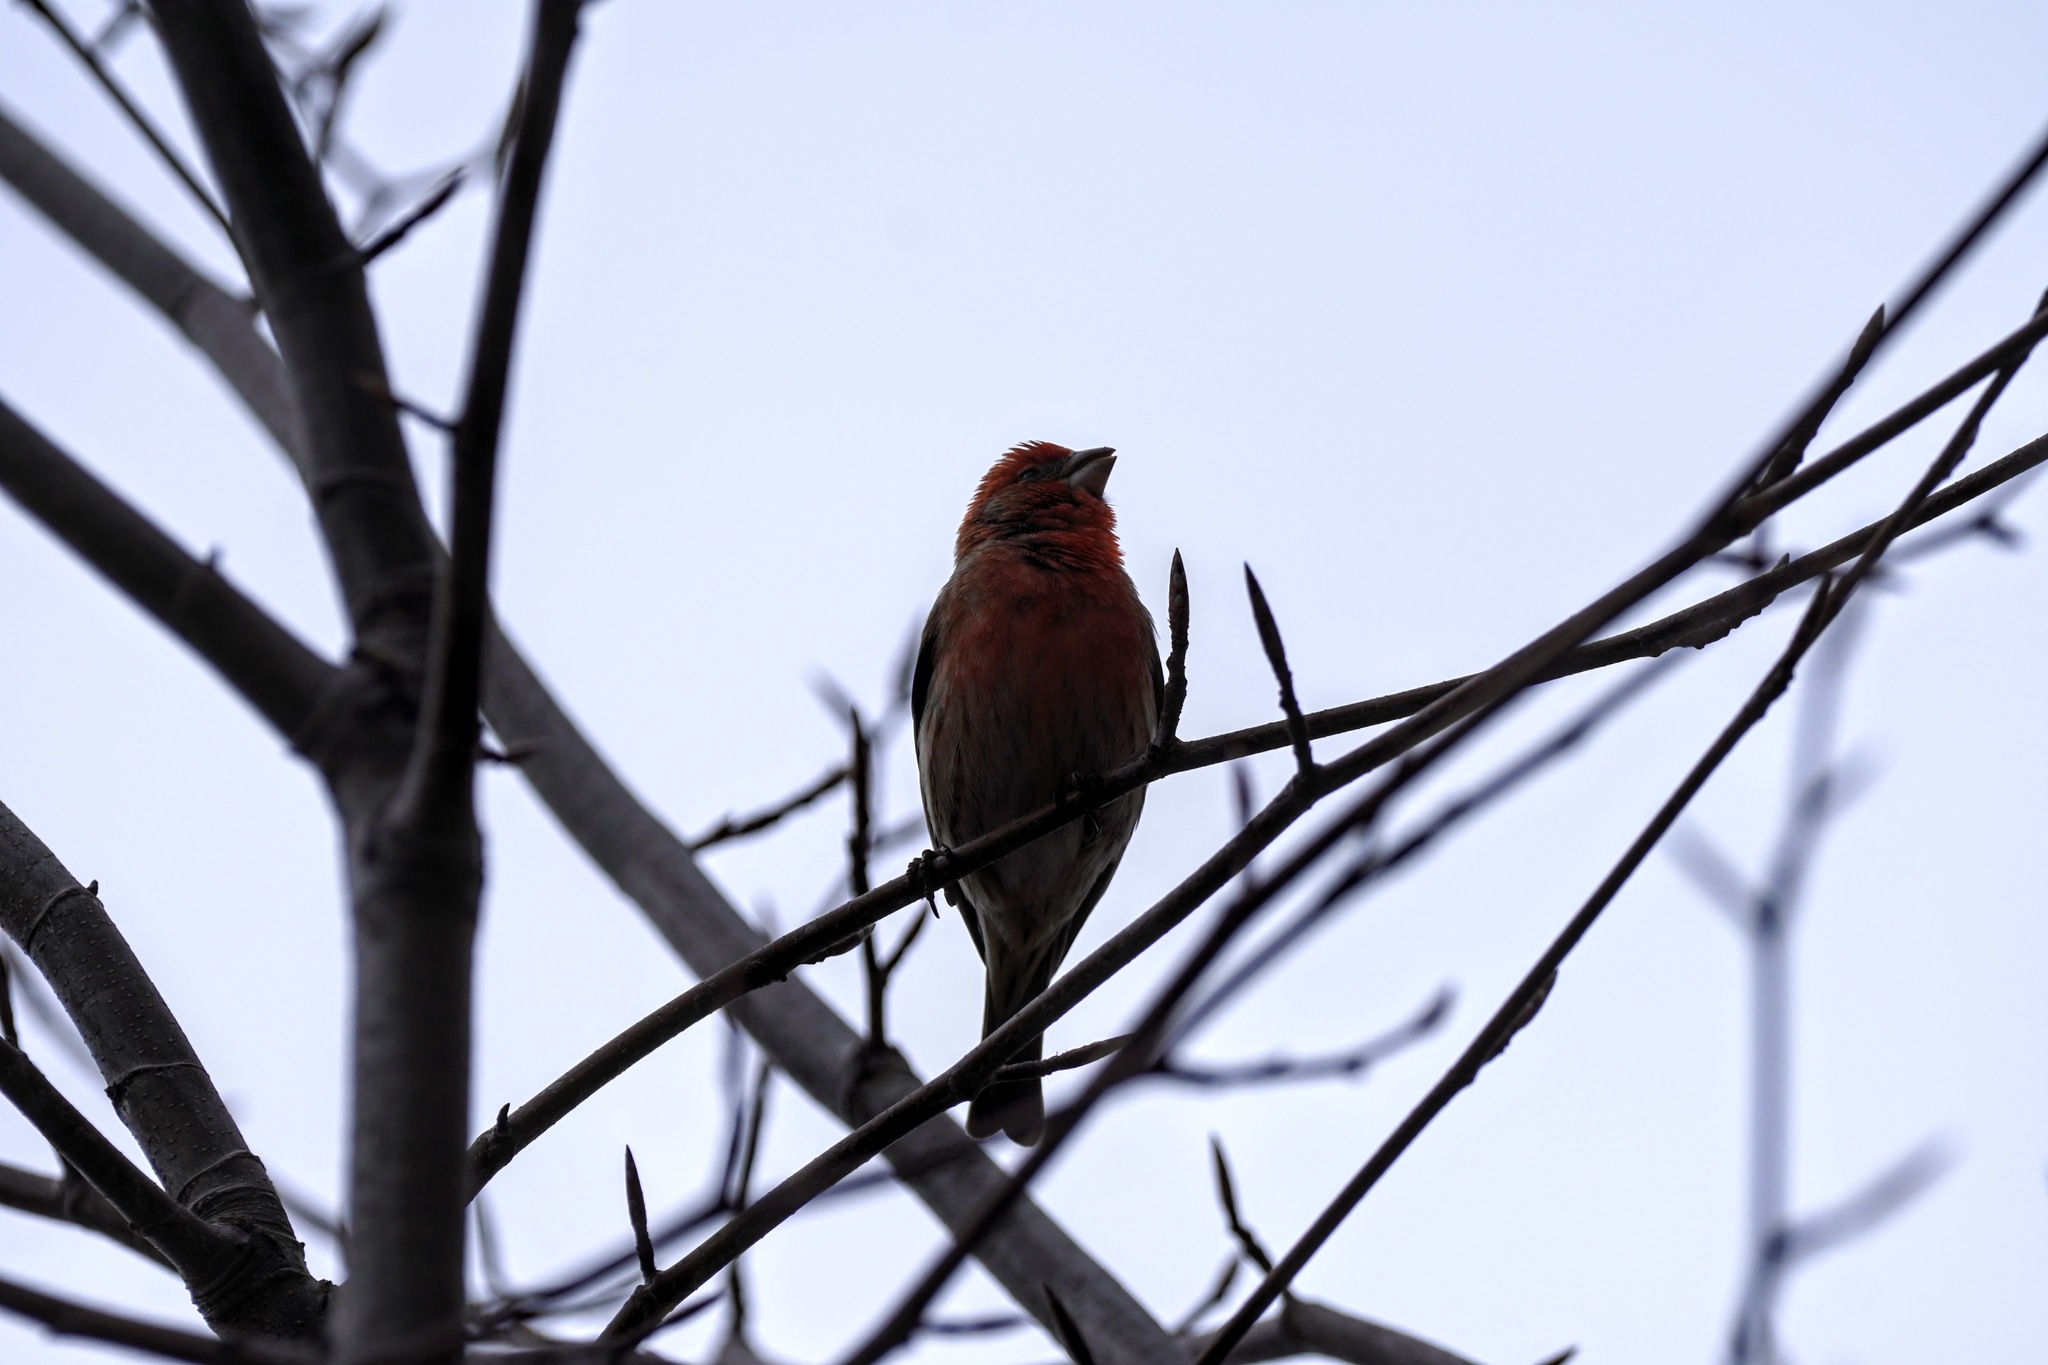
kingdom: Animalia
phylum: Chordata
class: Aves
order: Passeriformes
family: Fringillidae
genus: Haemorhous
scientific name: Haemorhous mexicanus
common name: House finch
